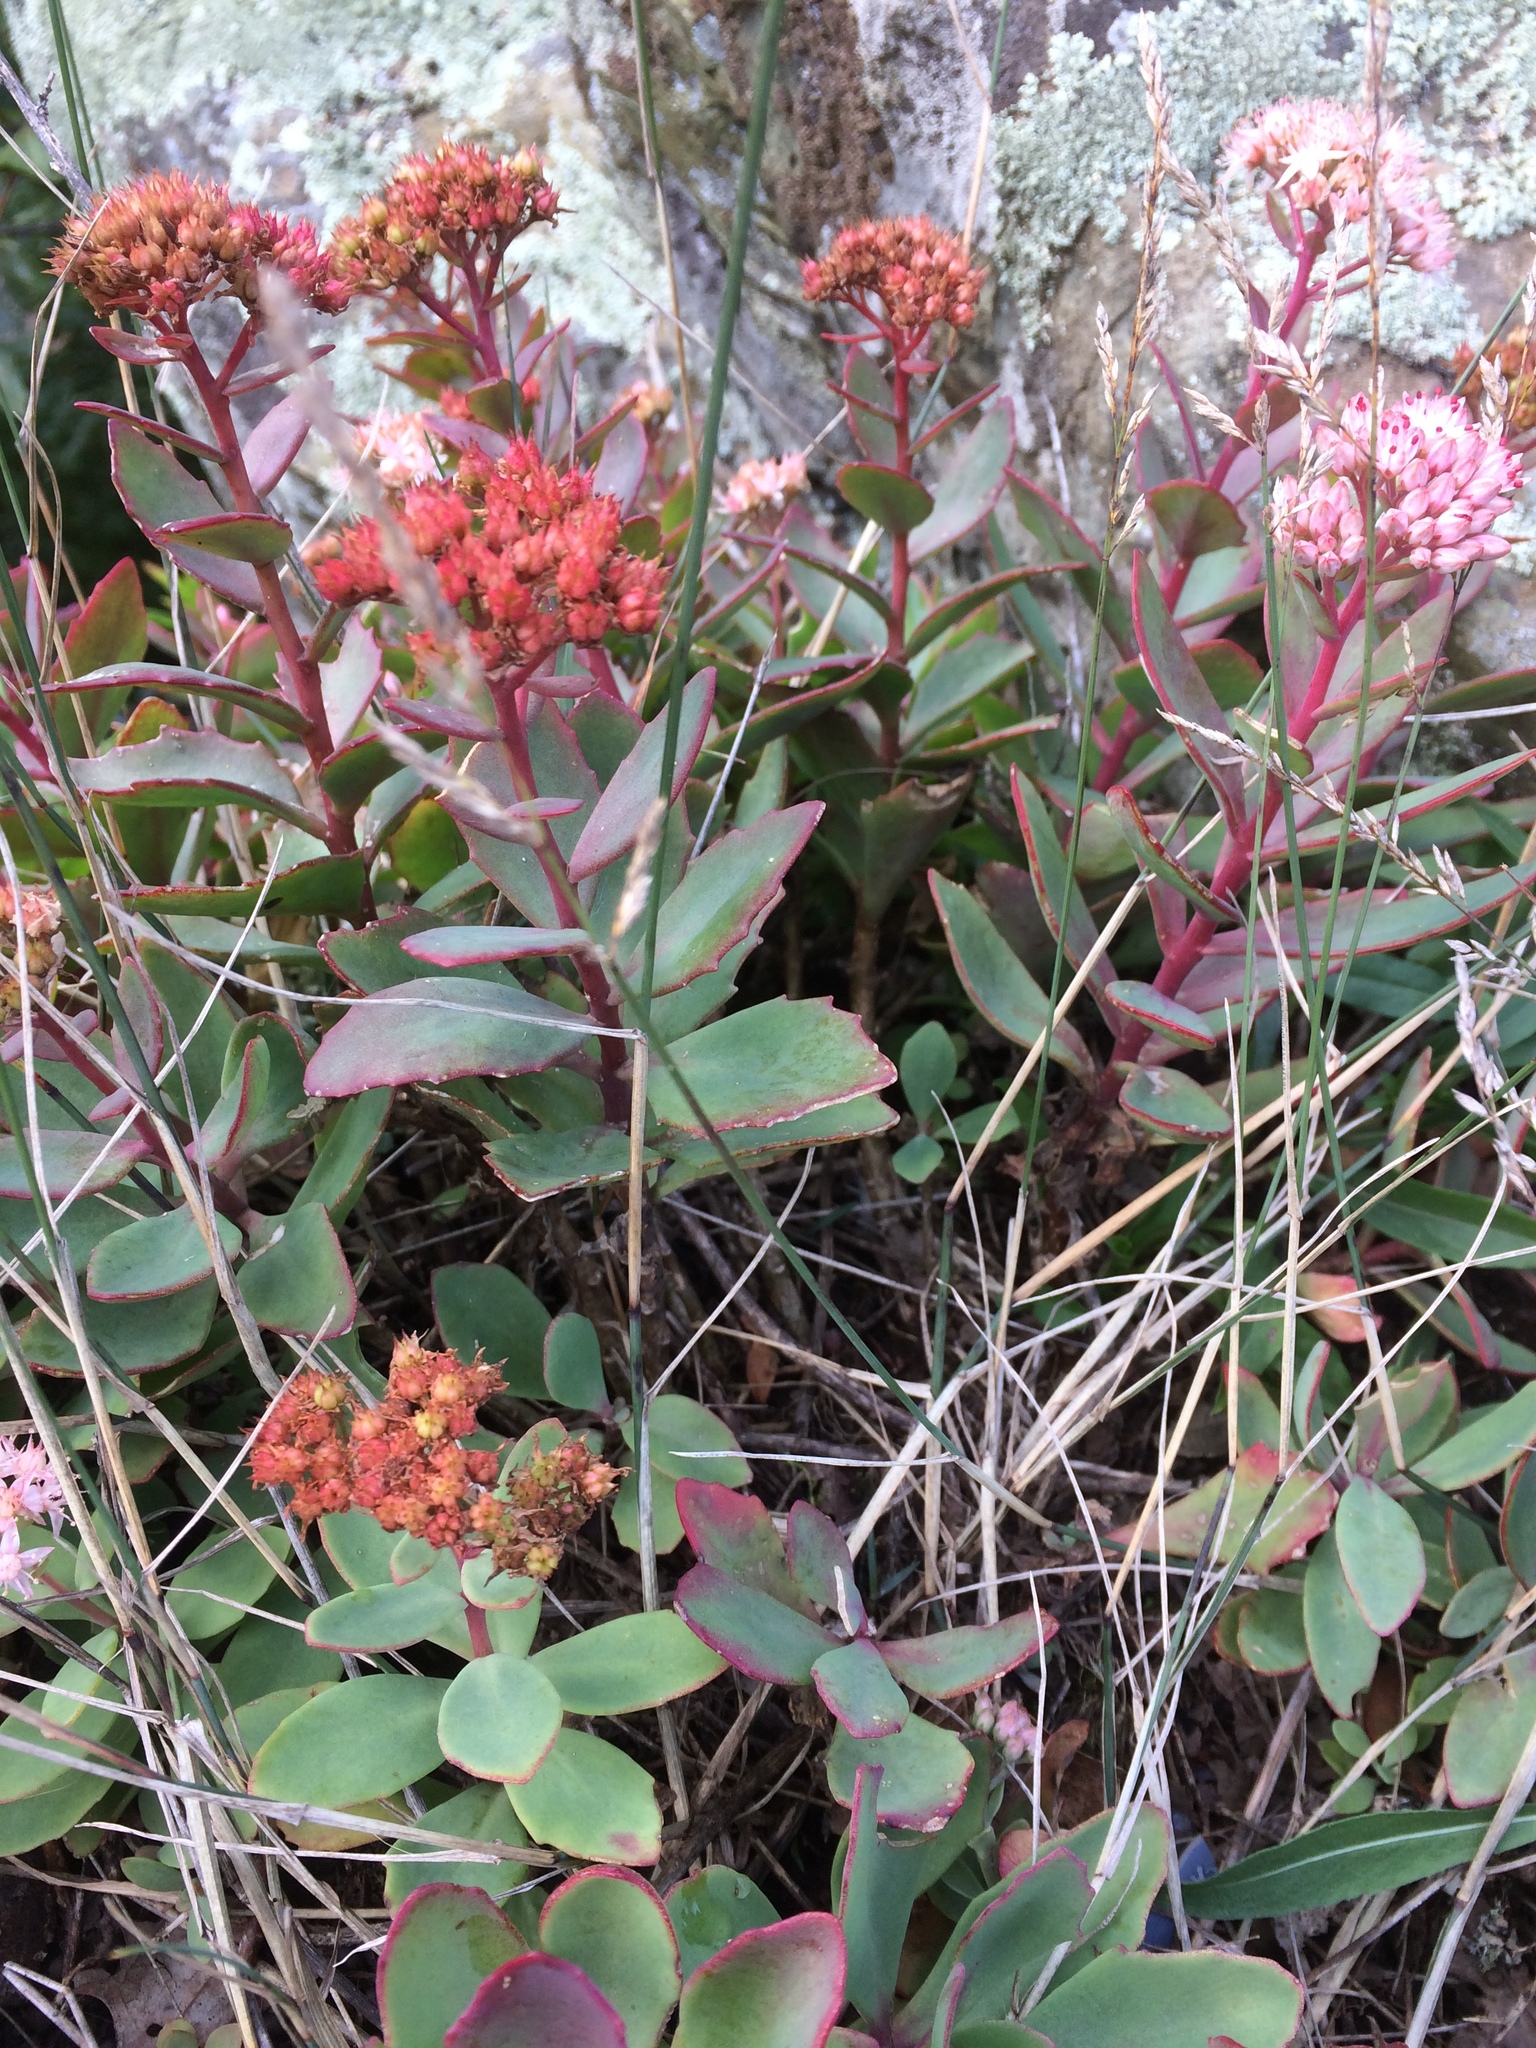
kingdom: Plantae
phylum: Tracheophyta
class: Magnoliopsida
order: Saxifragales
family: Crassulaceae
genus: Hylotelephium
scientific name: Hylotelephium telephioides
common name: Allegheny stonecrop
